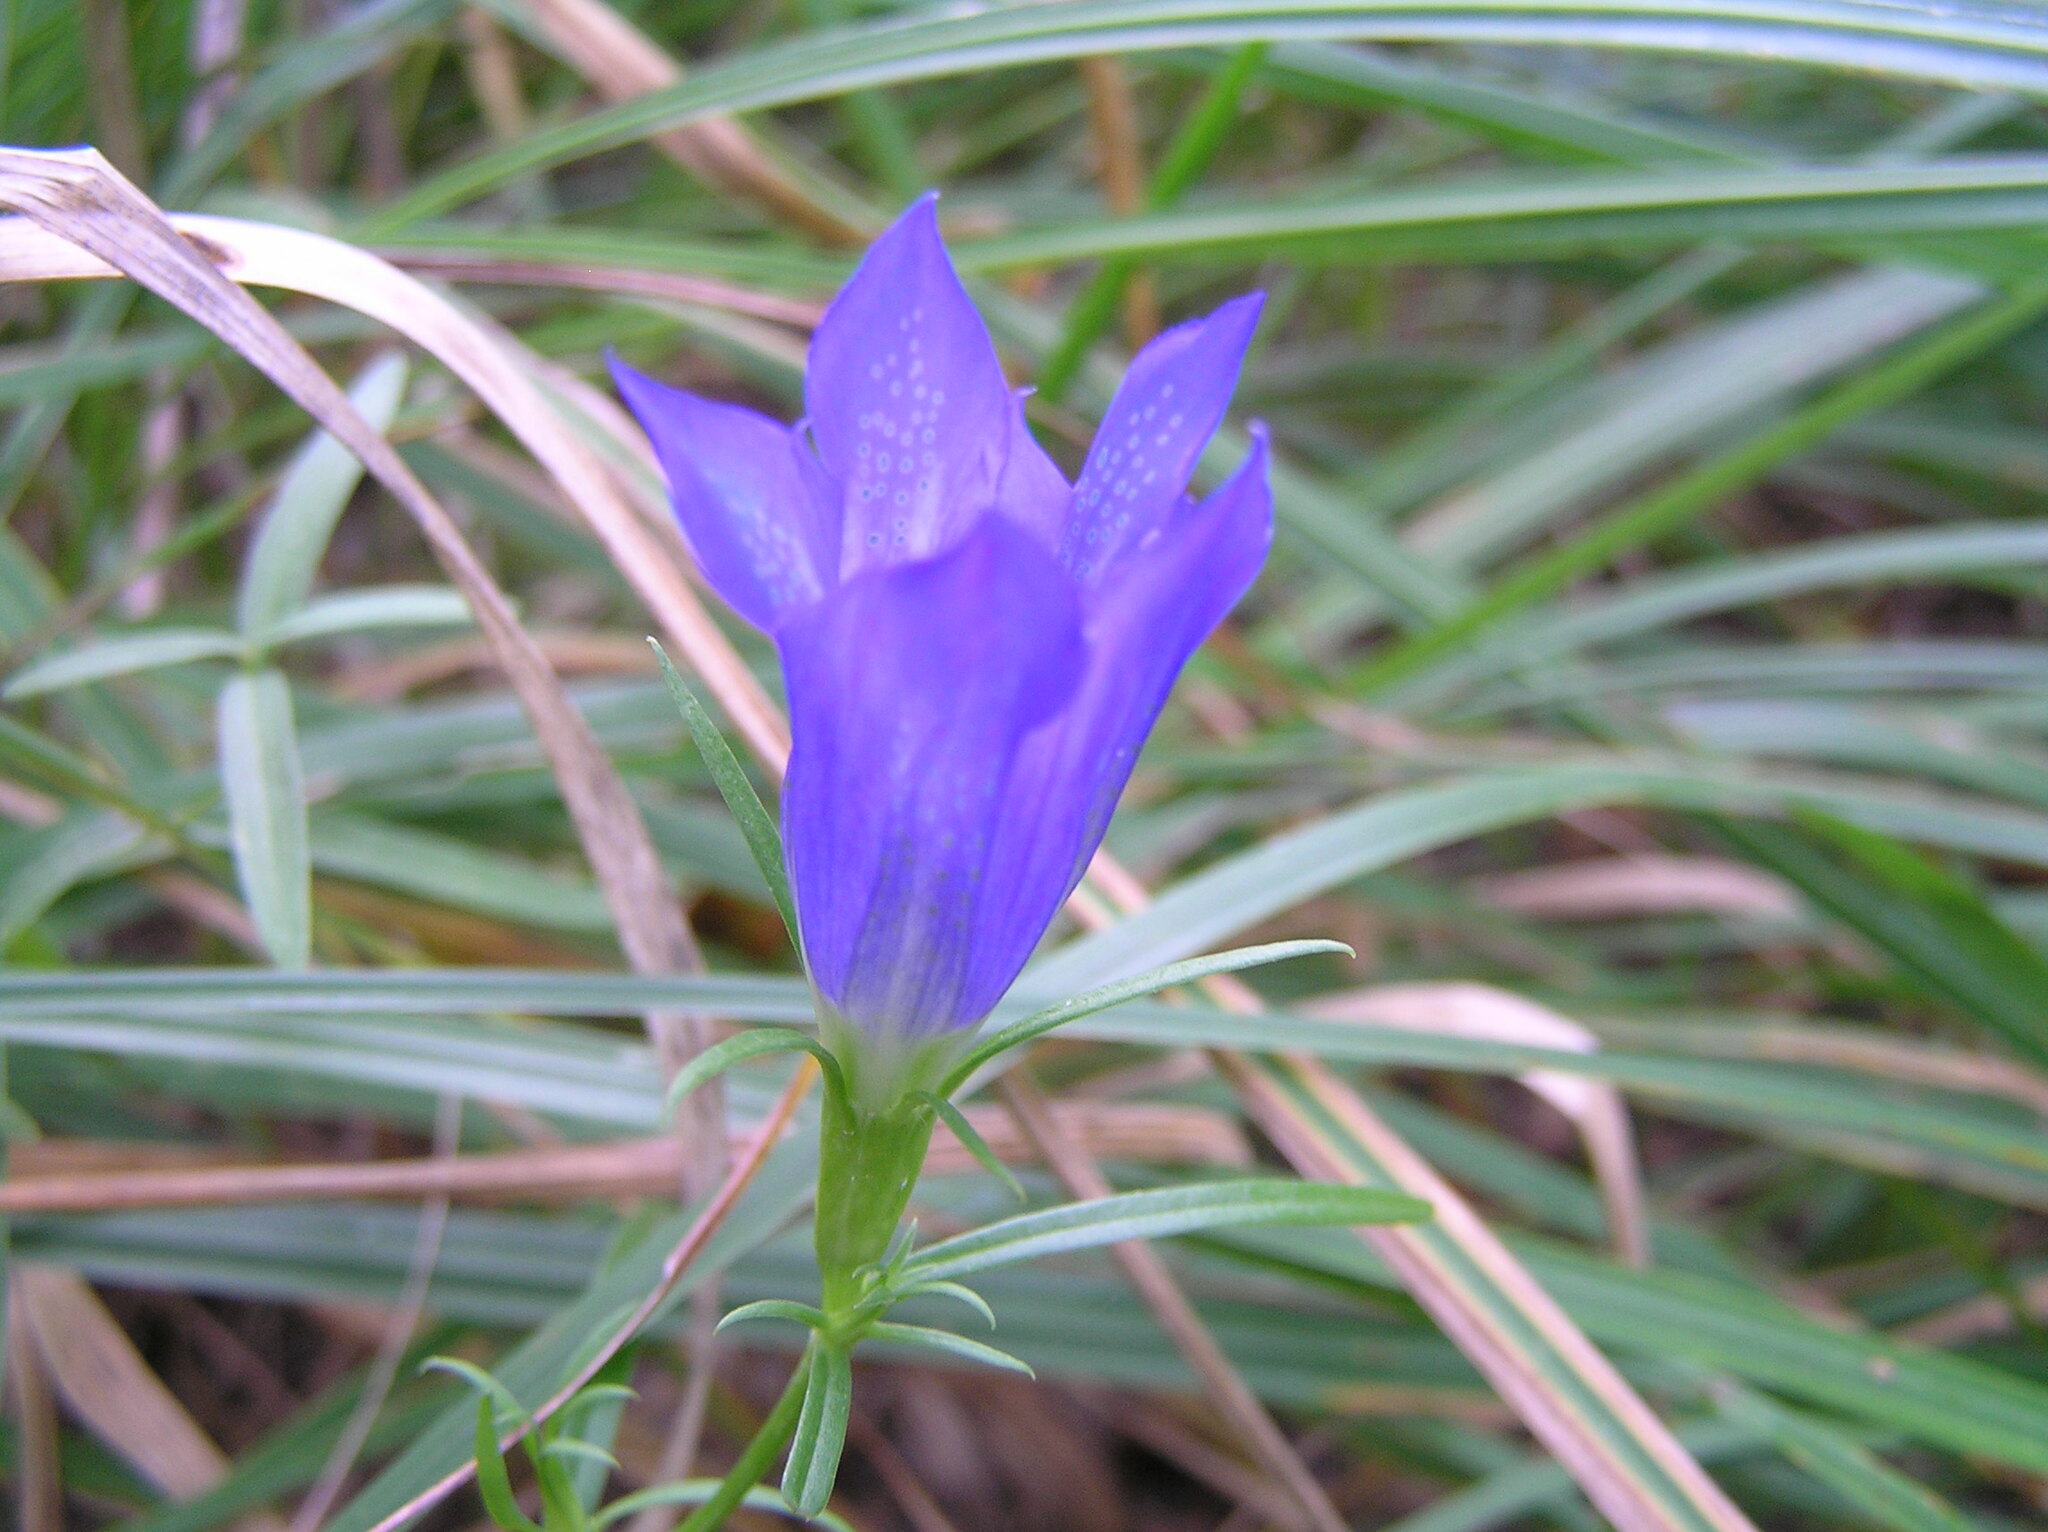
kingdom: Plantae
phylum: Tracheophyta
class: Magnoliopsida
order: Gentianales
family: Gentianaceae
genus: Gentiana
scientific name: Gentiana pneumonanthe
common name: Marsh gentian
